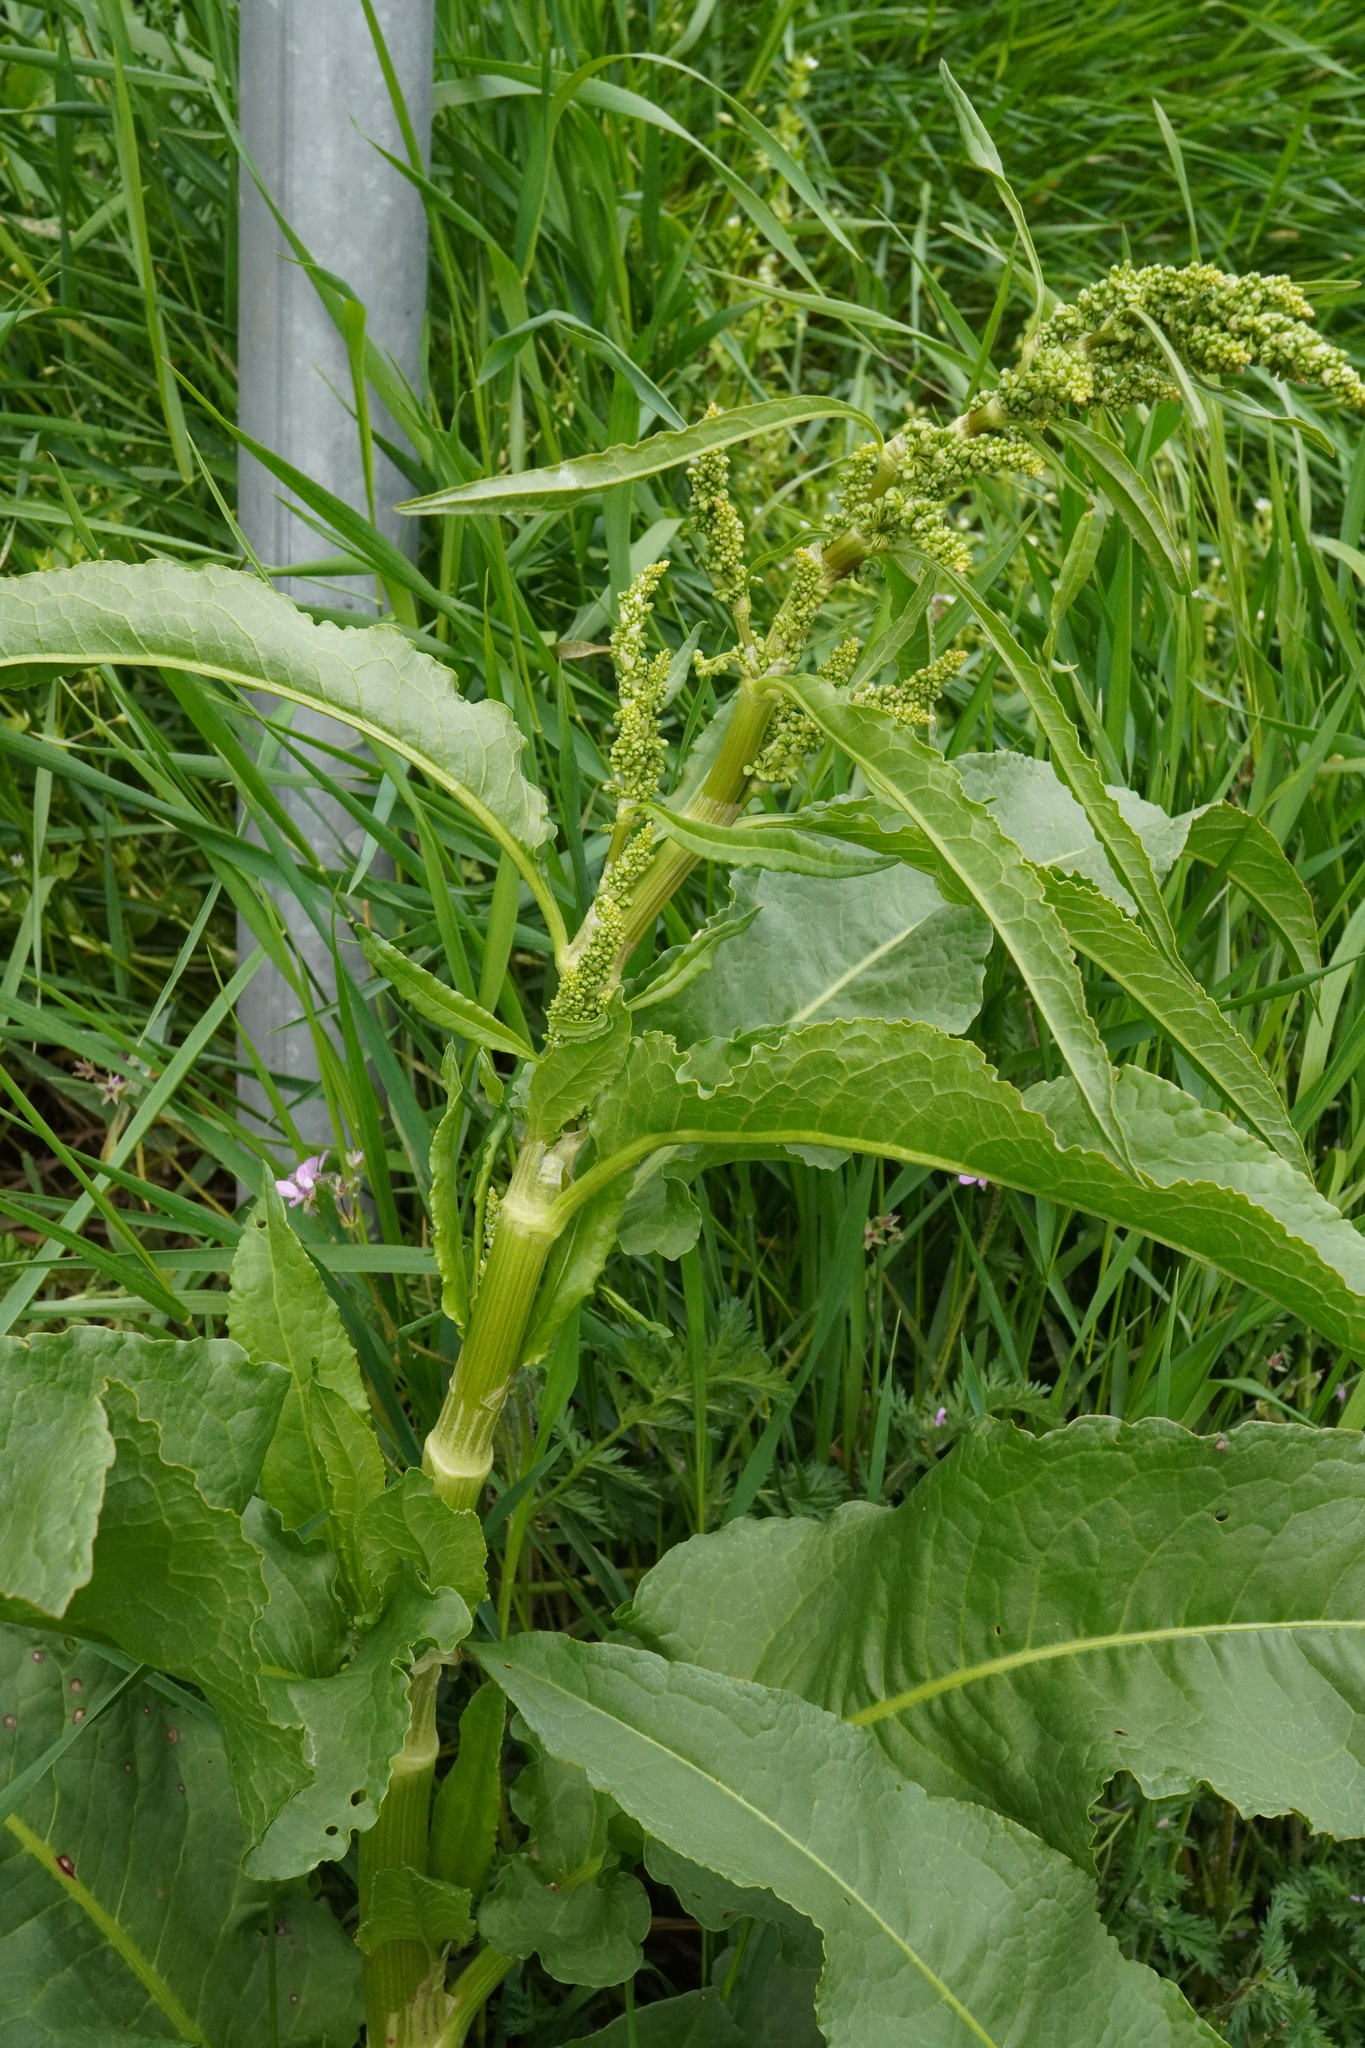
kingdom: Plantae
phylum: Tracheophyta
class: Magnoliopsida
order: Caryophyllales
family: Polygonaceae
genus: Rumex
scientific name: Rumex patientia
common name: Patience dock
